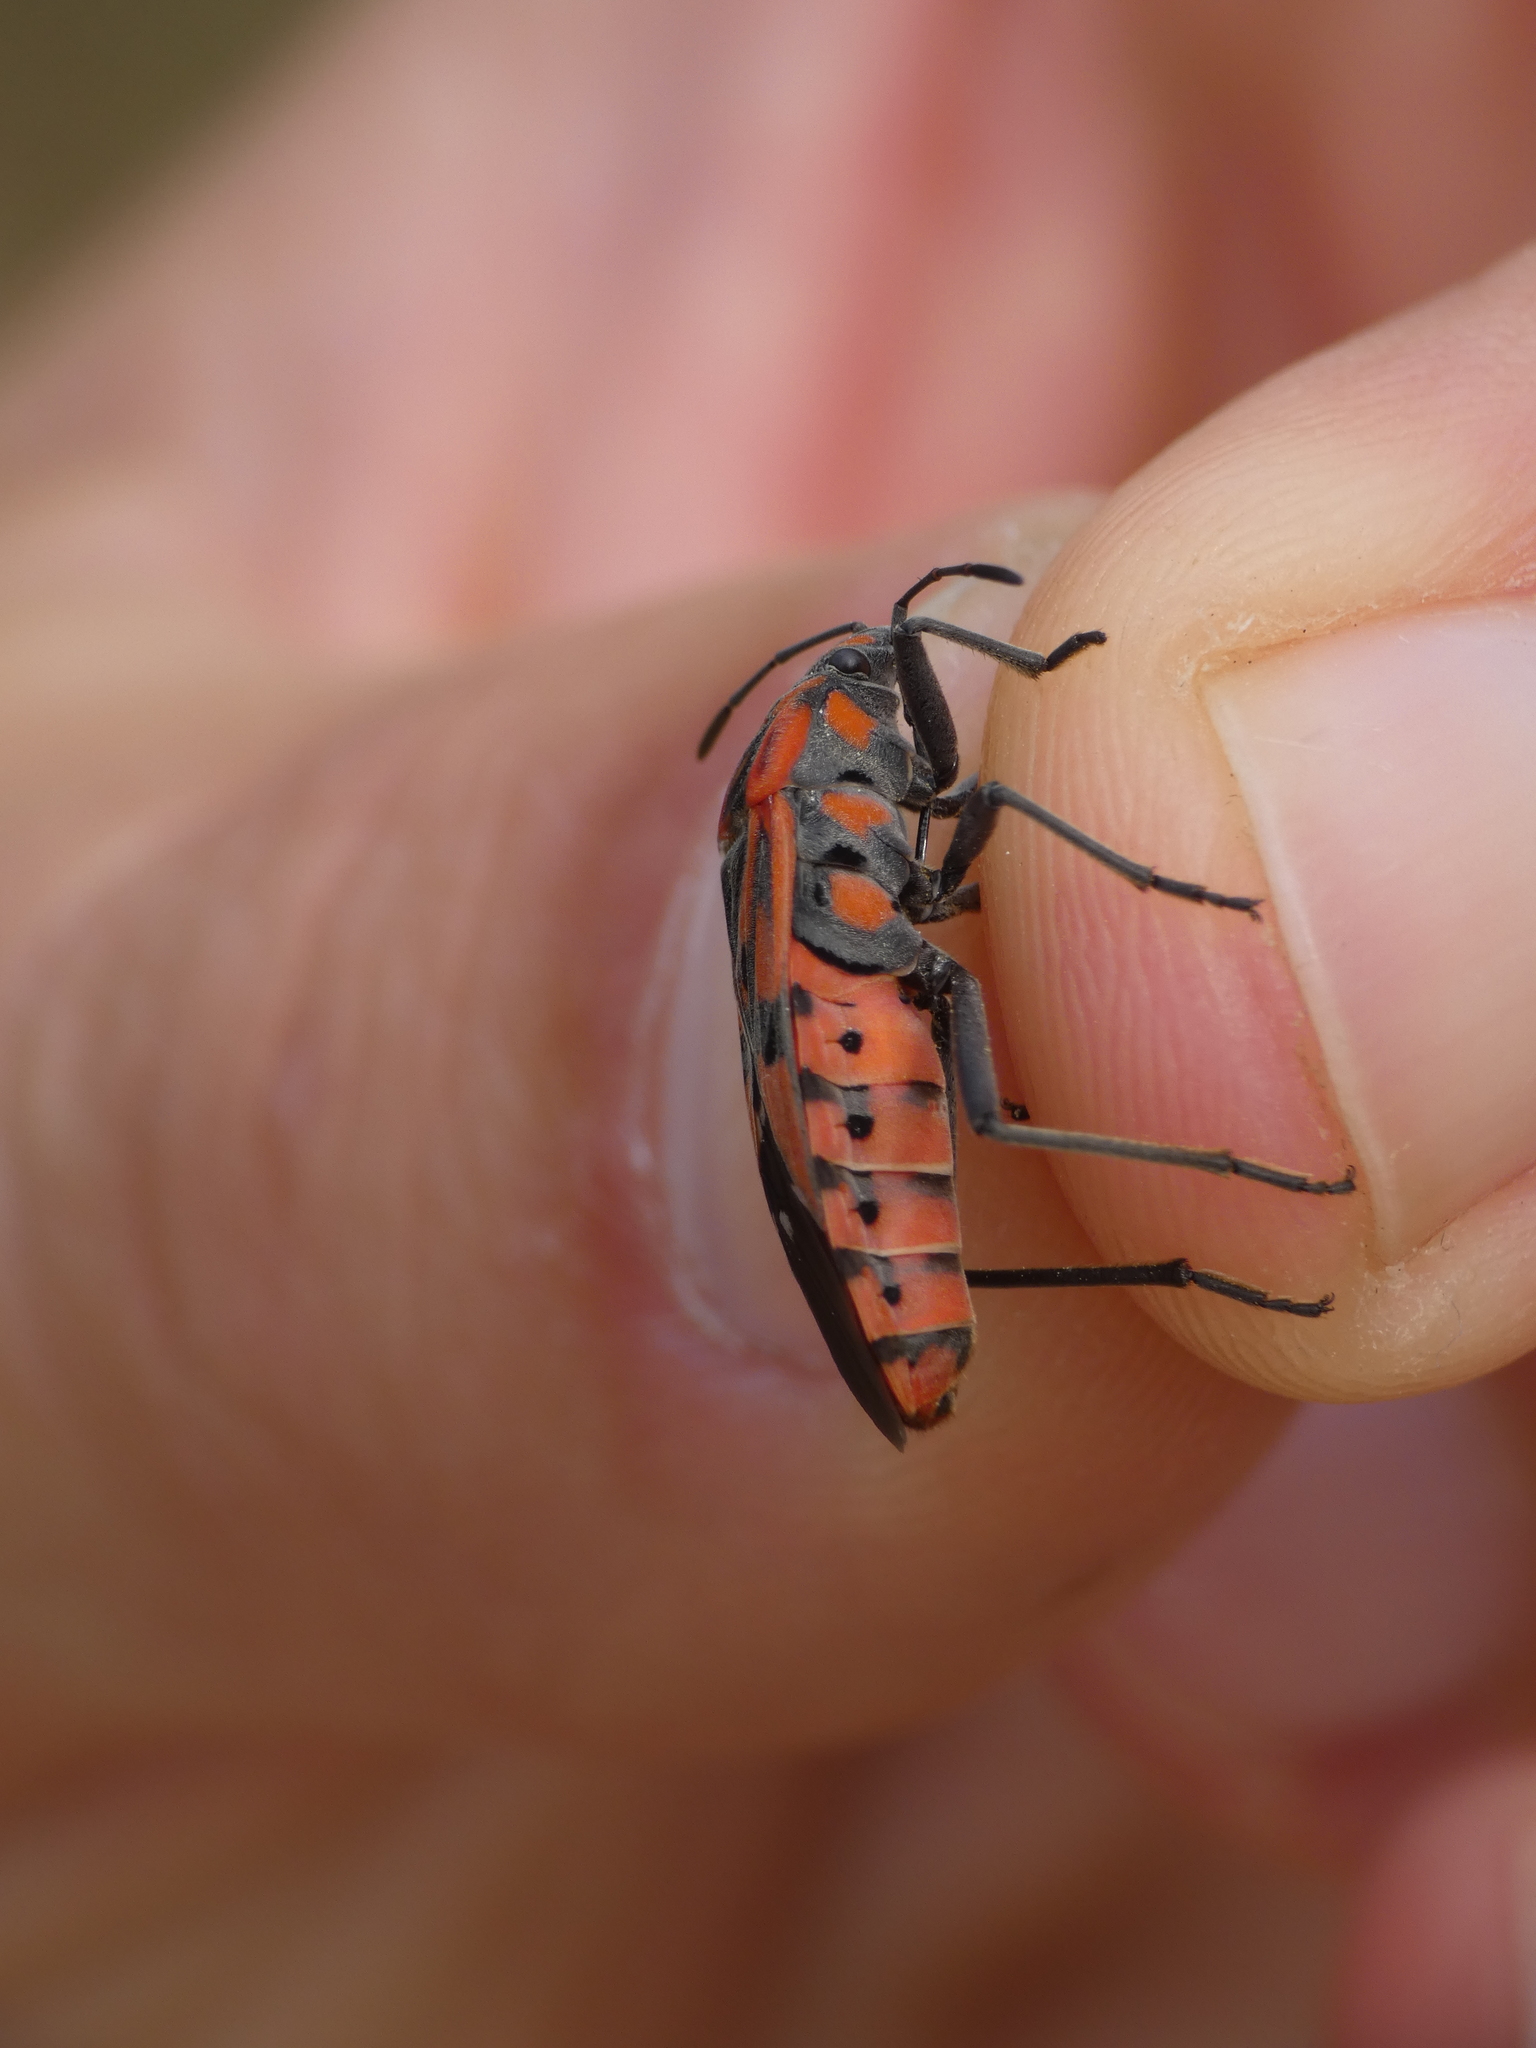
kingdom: Animalia
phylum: Arthropoda
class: Insecta
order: Hemiptera
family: Lygaeidae
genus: Spilostethus
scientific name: Spilostethus pandurus
